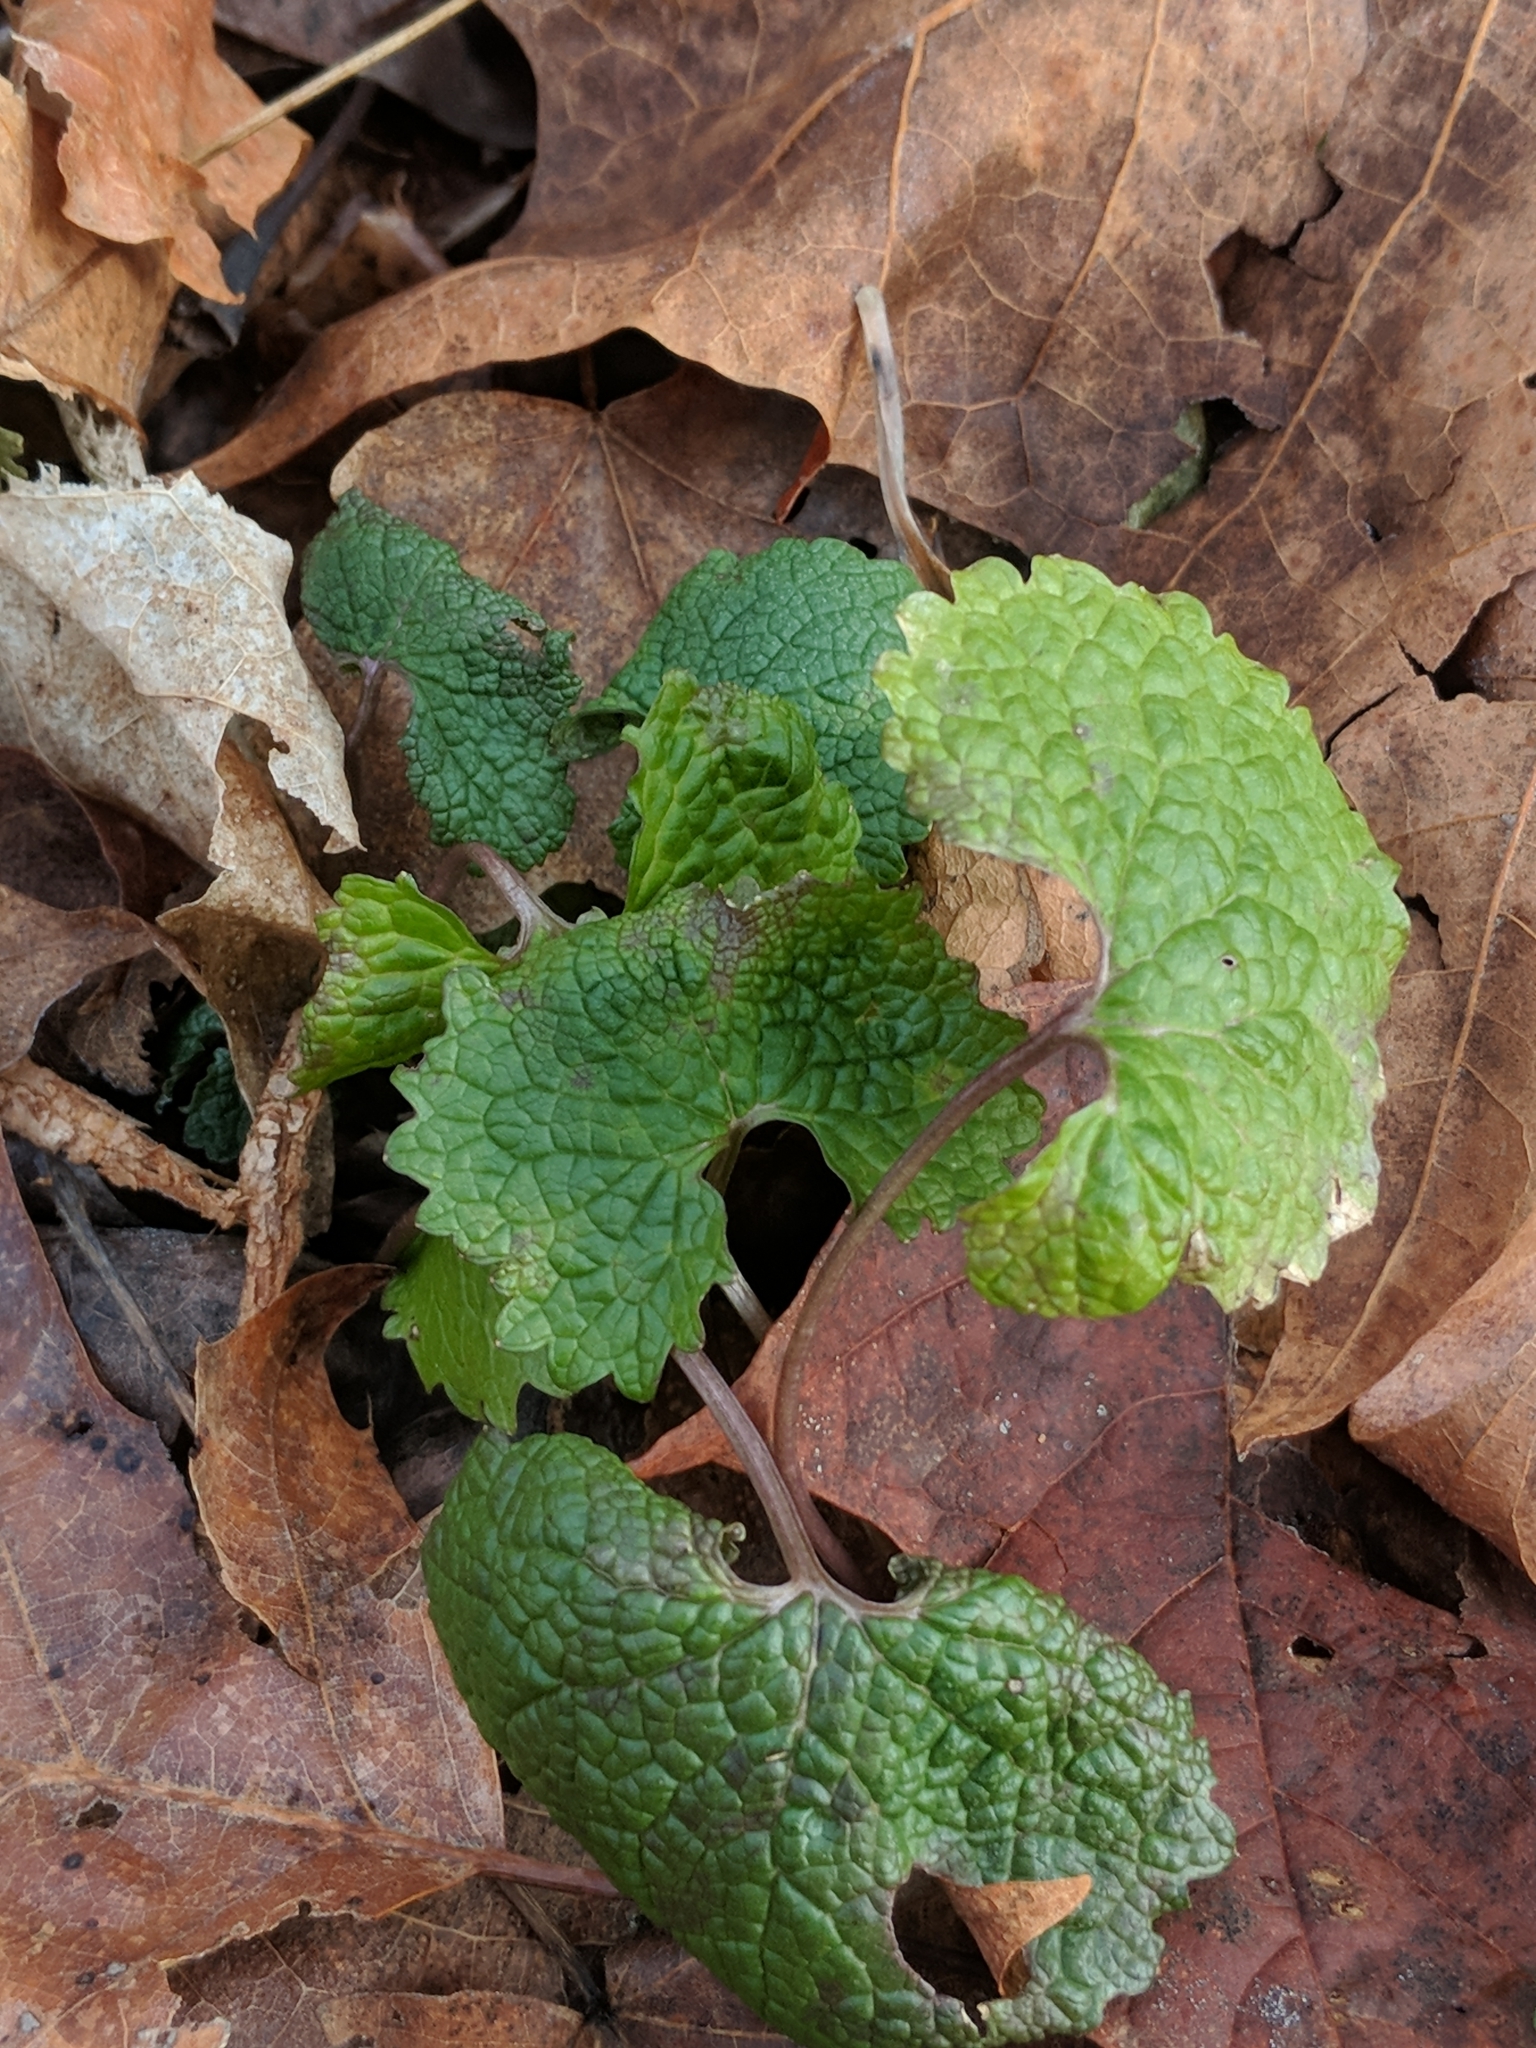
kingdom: Plantae
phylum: Tracheophyta
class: Magnoliopsida
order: Brassicales
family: Brassicaceae
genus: Alliaria
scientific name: Alliaria petiolata
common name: Garlic mustard
